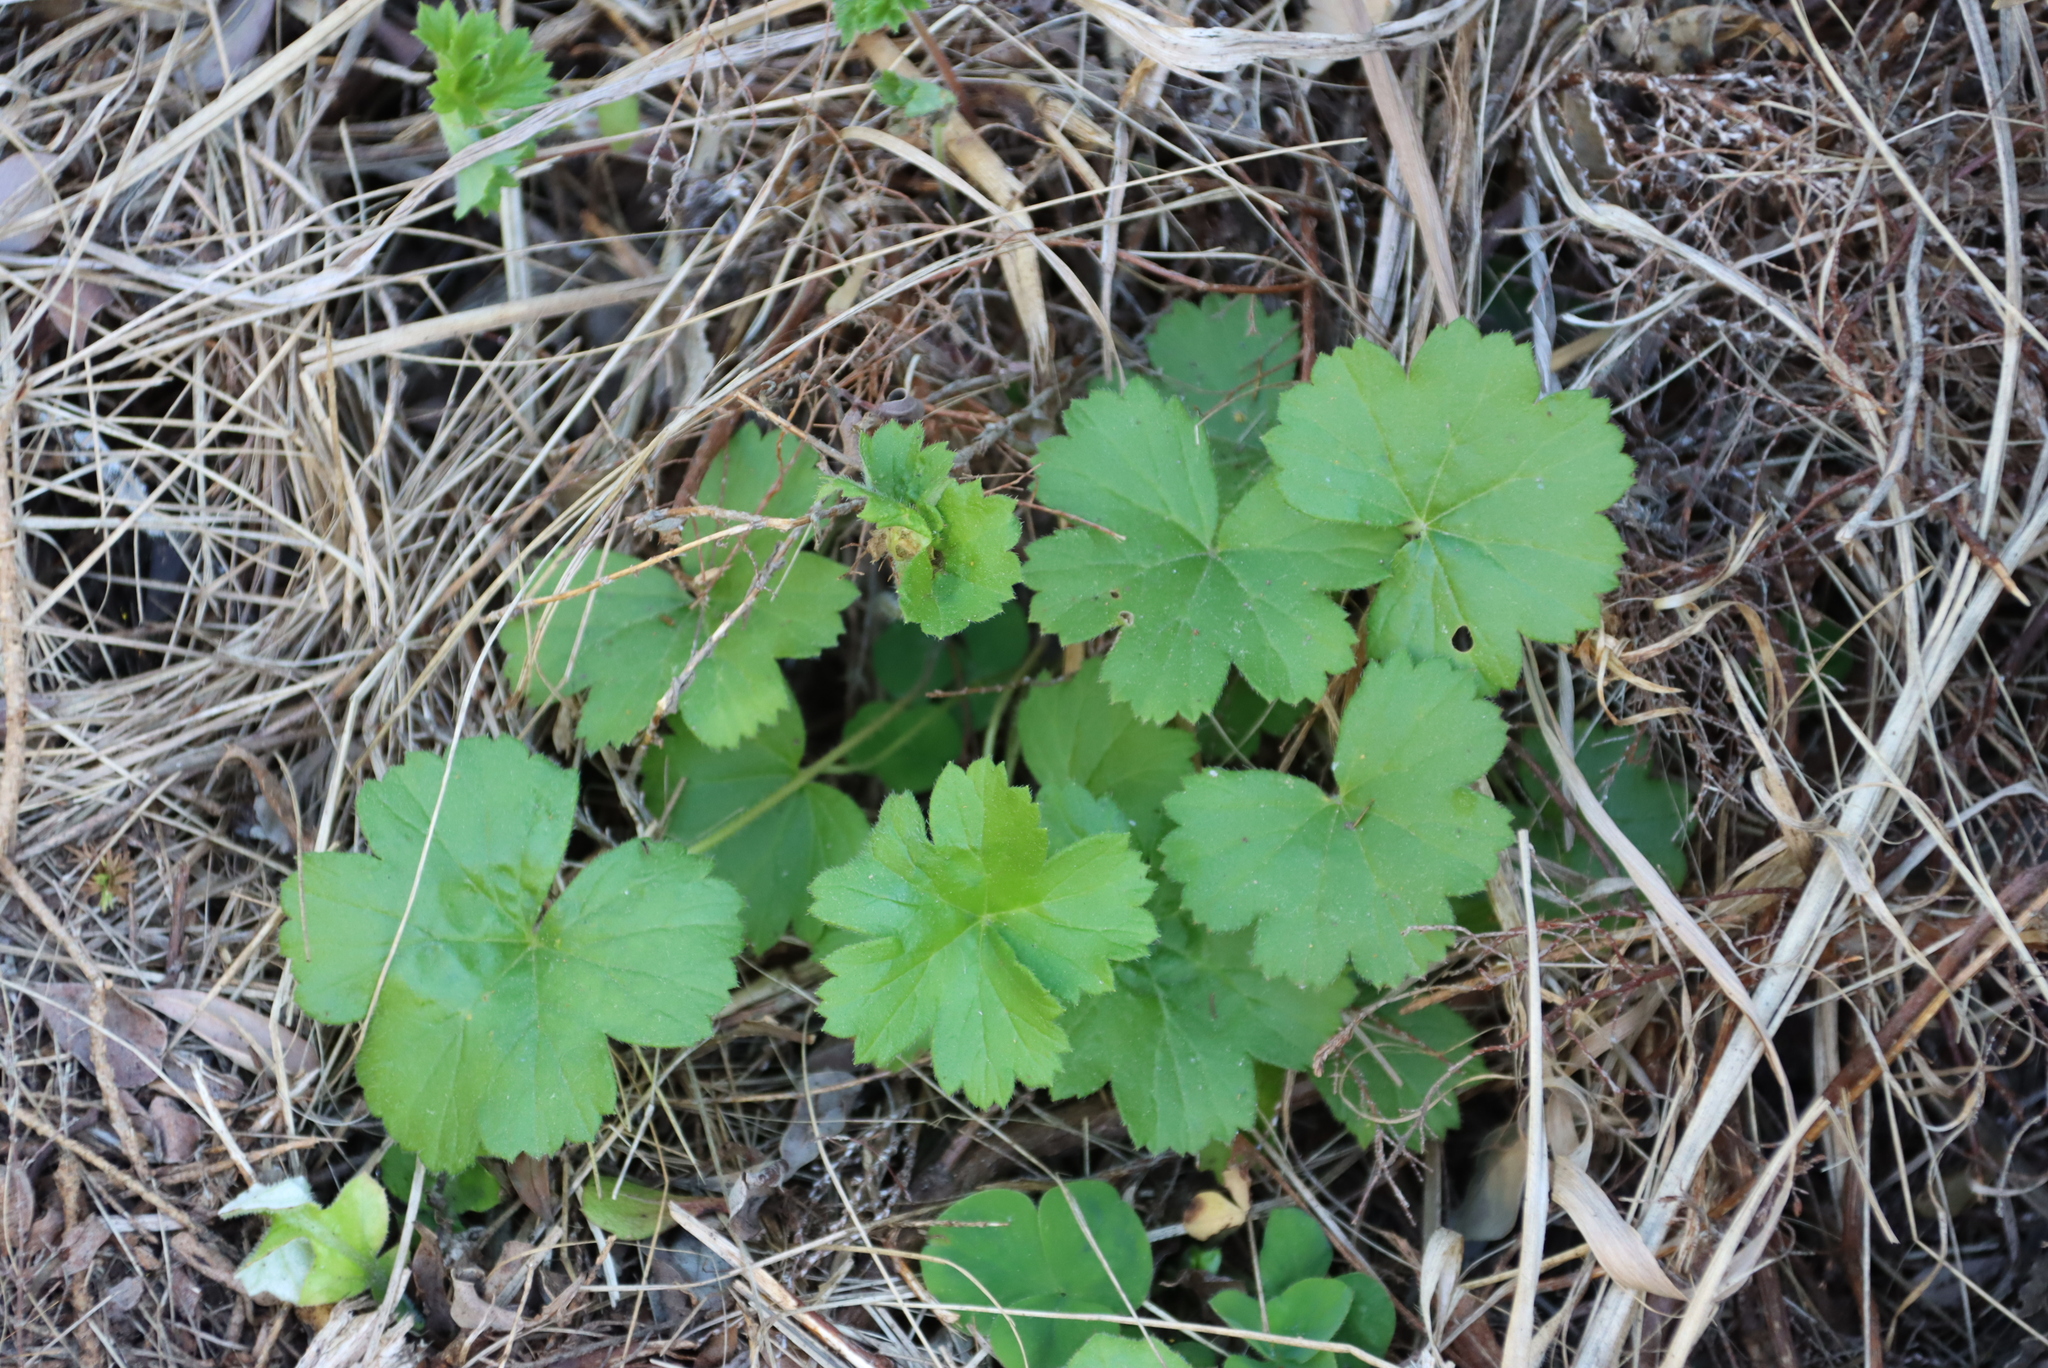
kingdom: Plantae
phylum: Tracheophyta
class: Magnoliopsida
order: Geraniales
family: Geraniaceae
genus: Pelargonium
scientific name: Pelargonium alchemilloides
